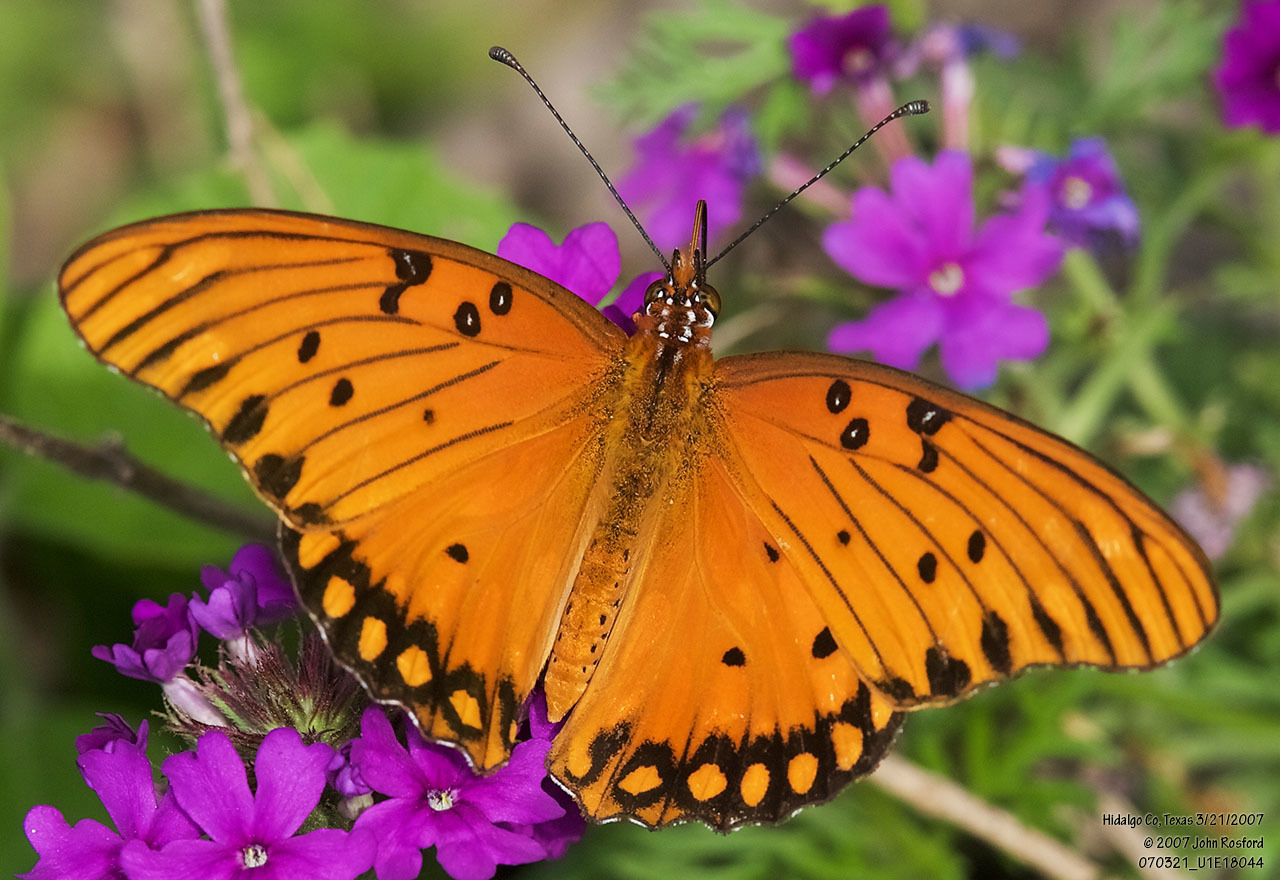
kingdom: Animalia
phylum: Arthropoda
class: Insecta
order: Lepidoptera
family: Nymphalidae
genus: Dione
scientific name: Dione vanillae
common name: Gulf fritillary
